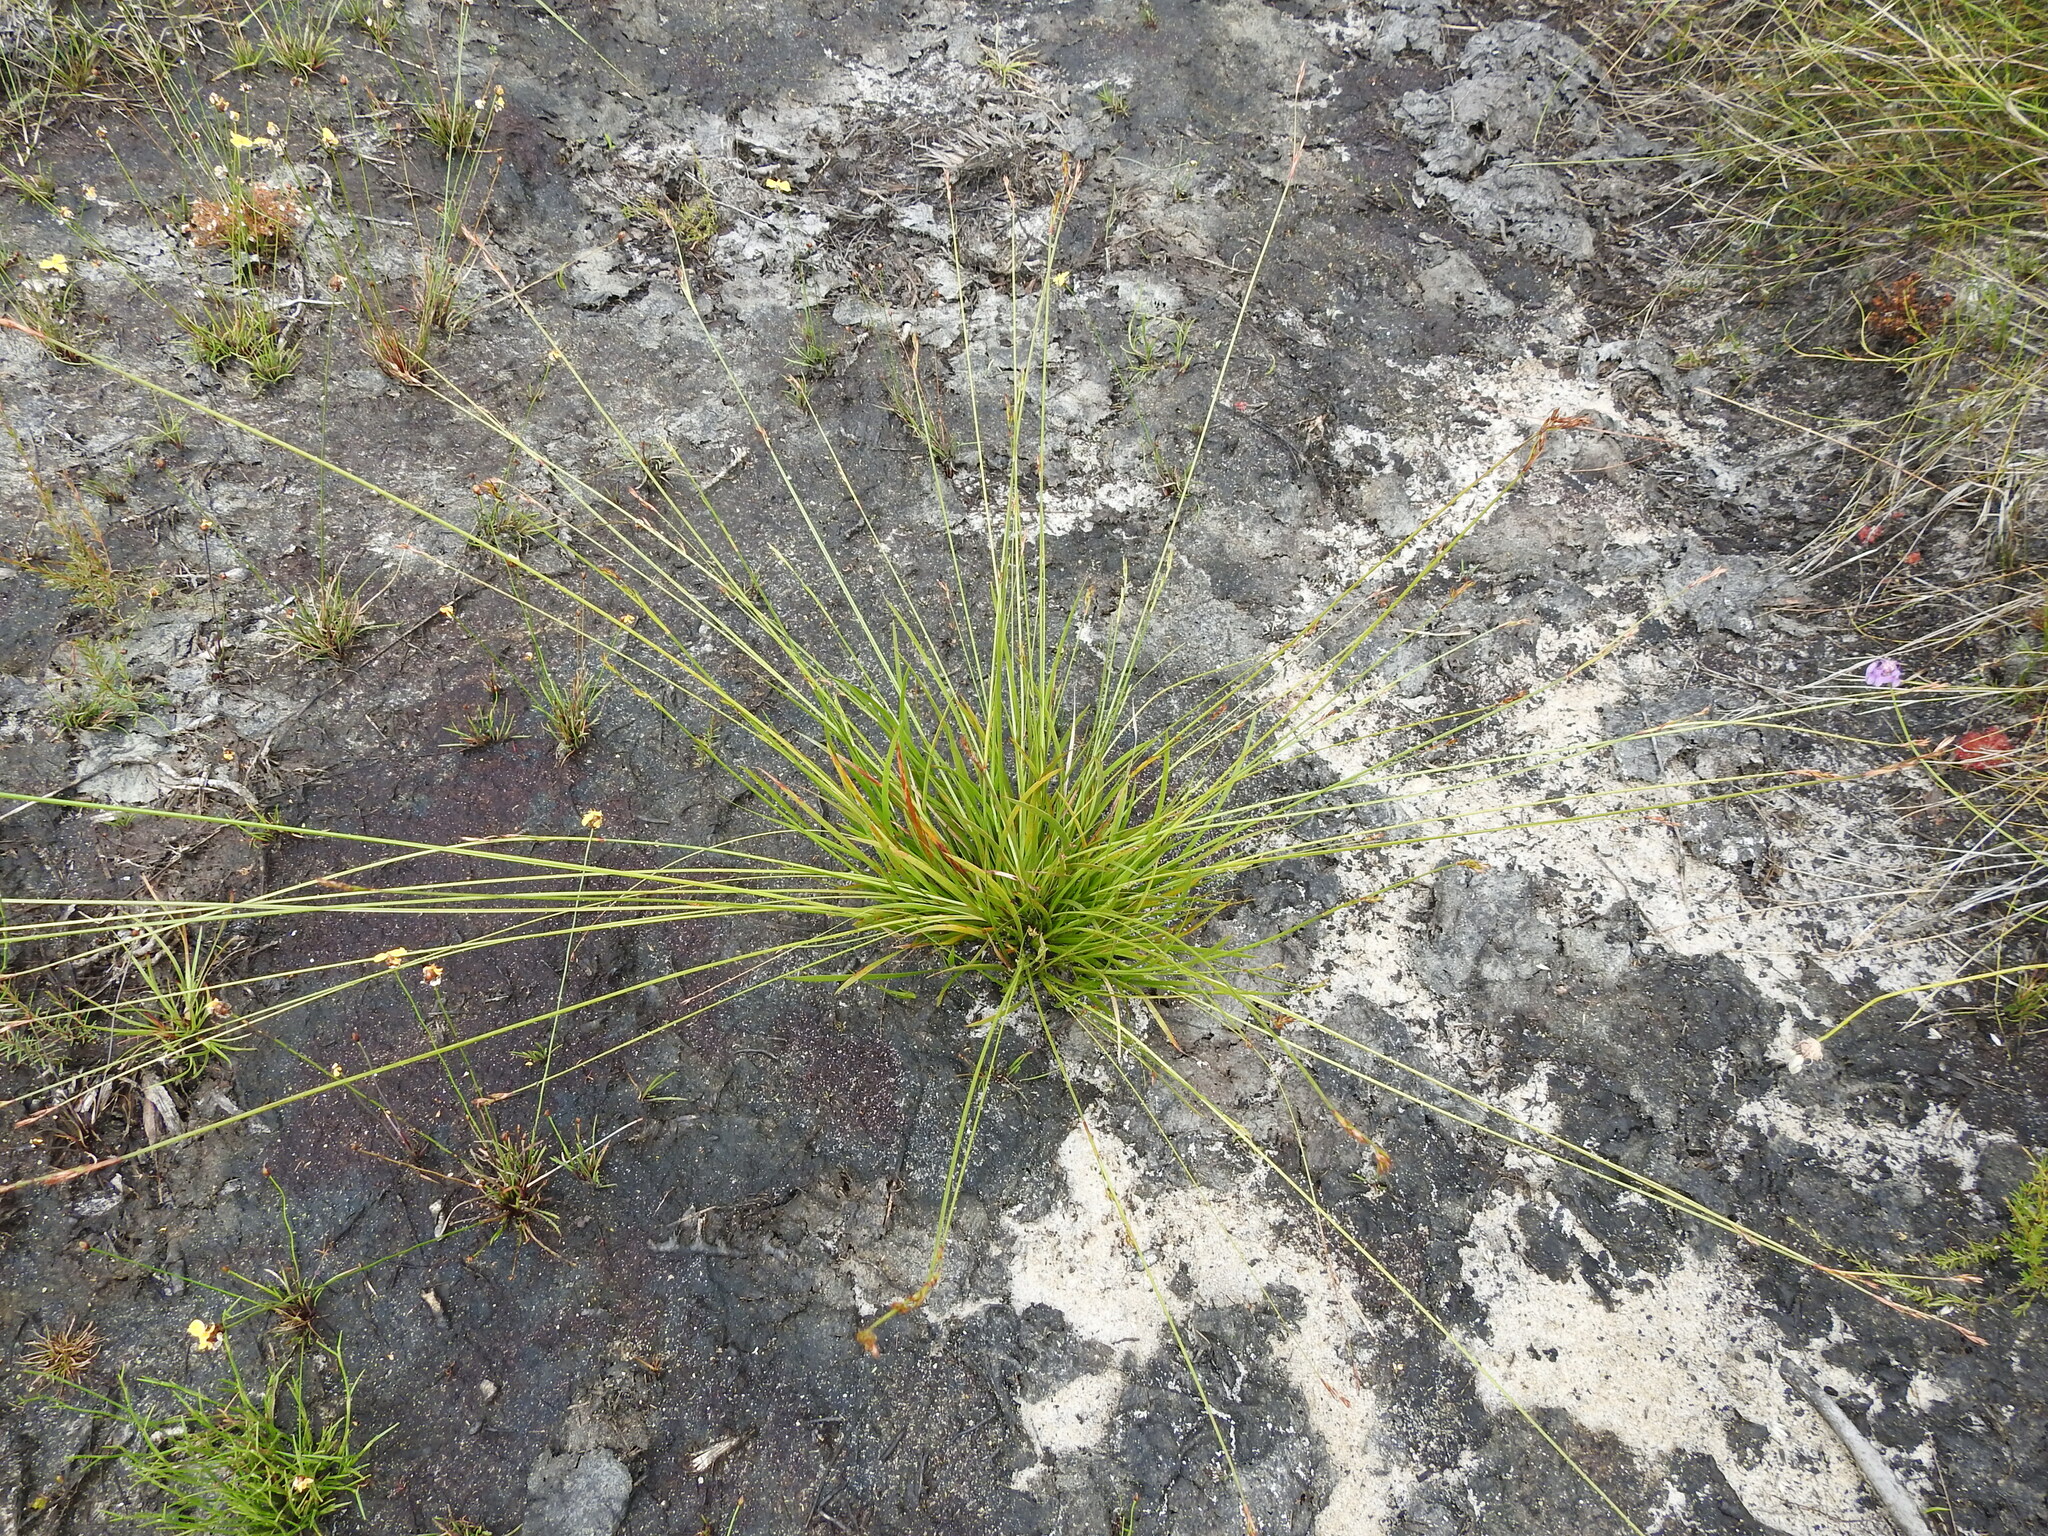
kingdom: Plantae
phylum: Tracheophyta
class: Liliopsida
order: Poales
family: Cyperaceae
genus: Machaerina
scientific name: Machaerina muelleri
